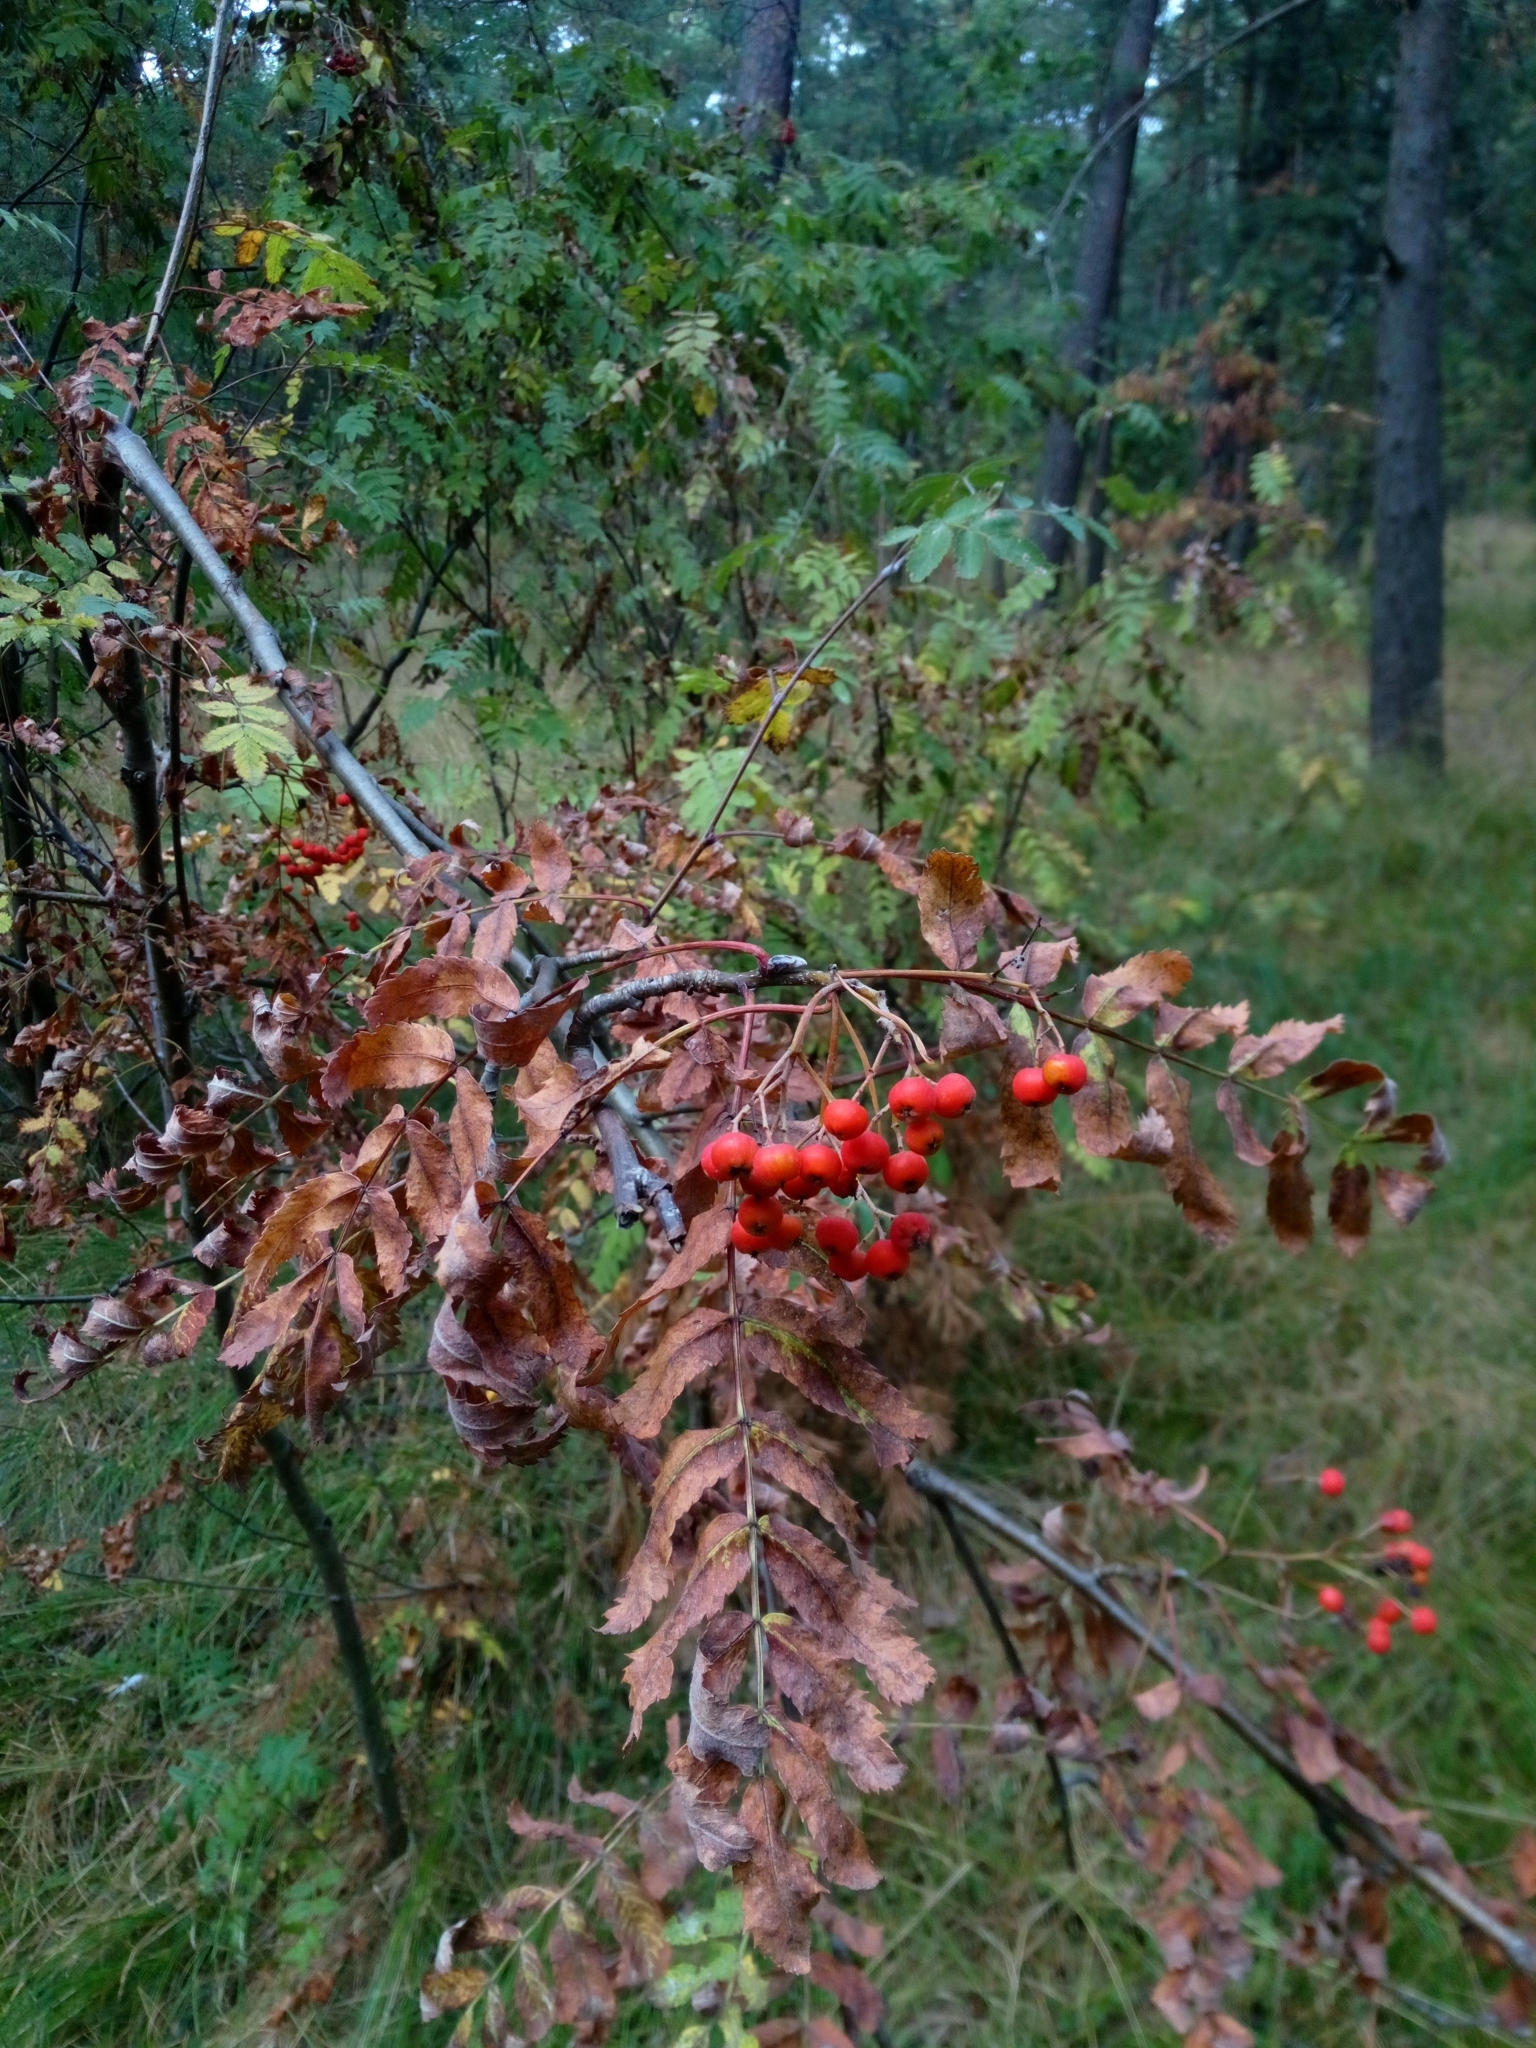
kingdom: Plantae
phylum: Tracheophyta
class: Magnoliopsida
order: Rosales
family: Rosaceae
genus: Sorbus
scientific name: Sorbus aucuparia
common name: Rowan
